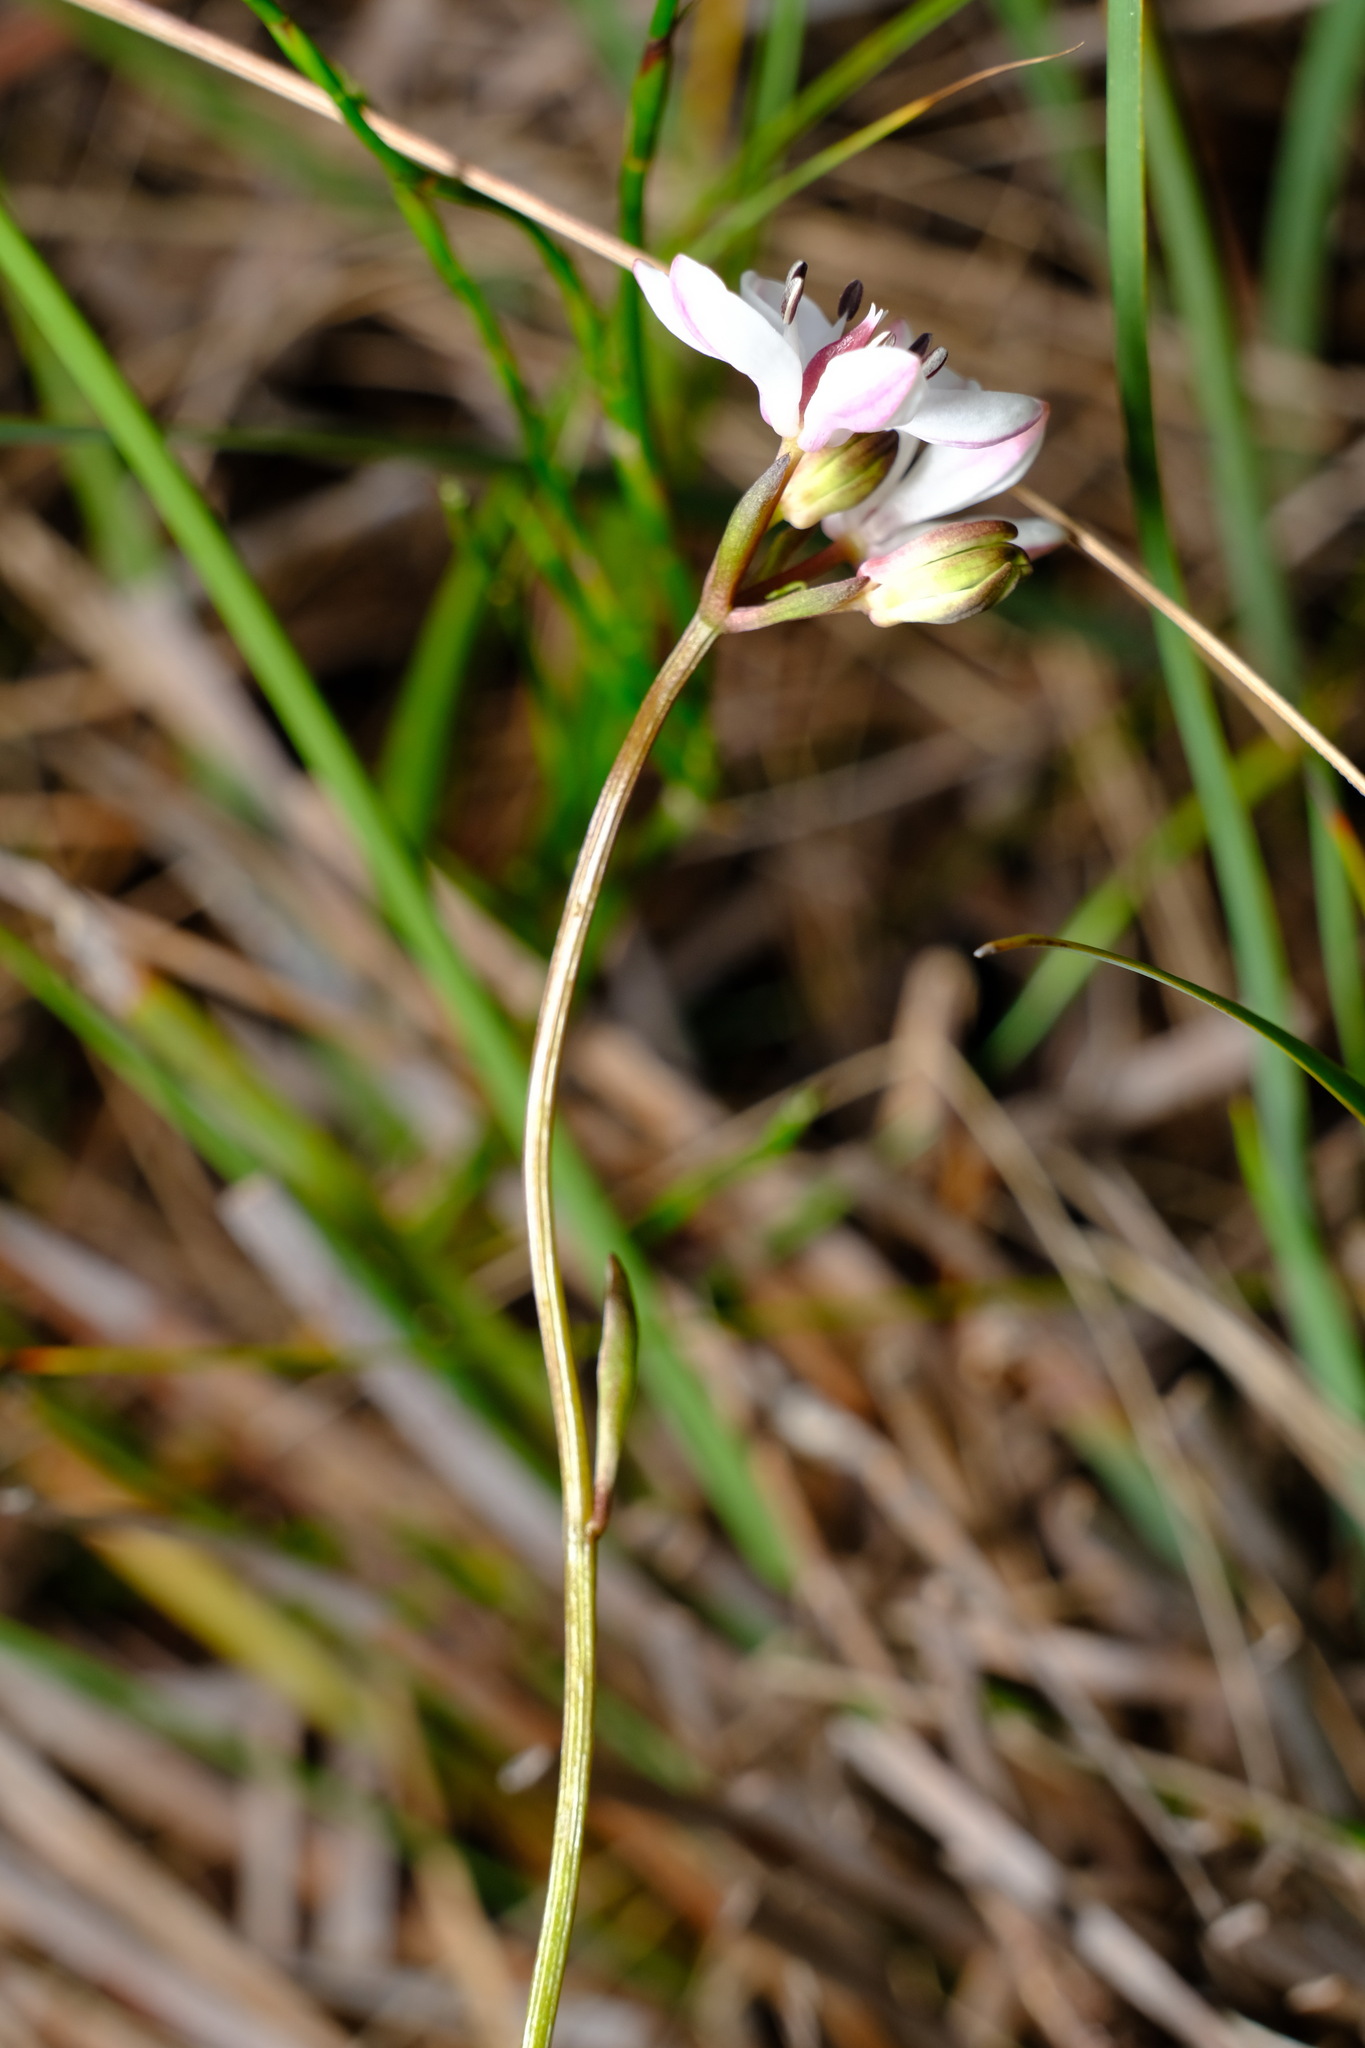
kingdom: Plantae
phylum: Tracheophyta
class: Liliopsida
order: Liliales
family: Colchicaceae
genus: Burchardia
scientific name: Burchardia umbellata
